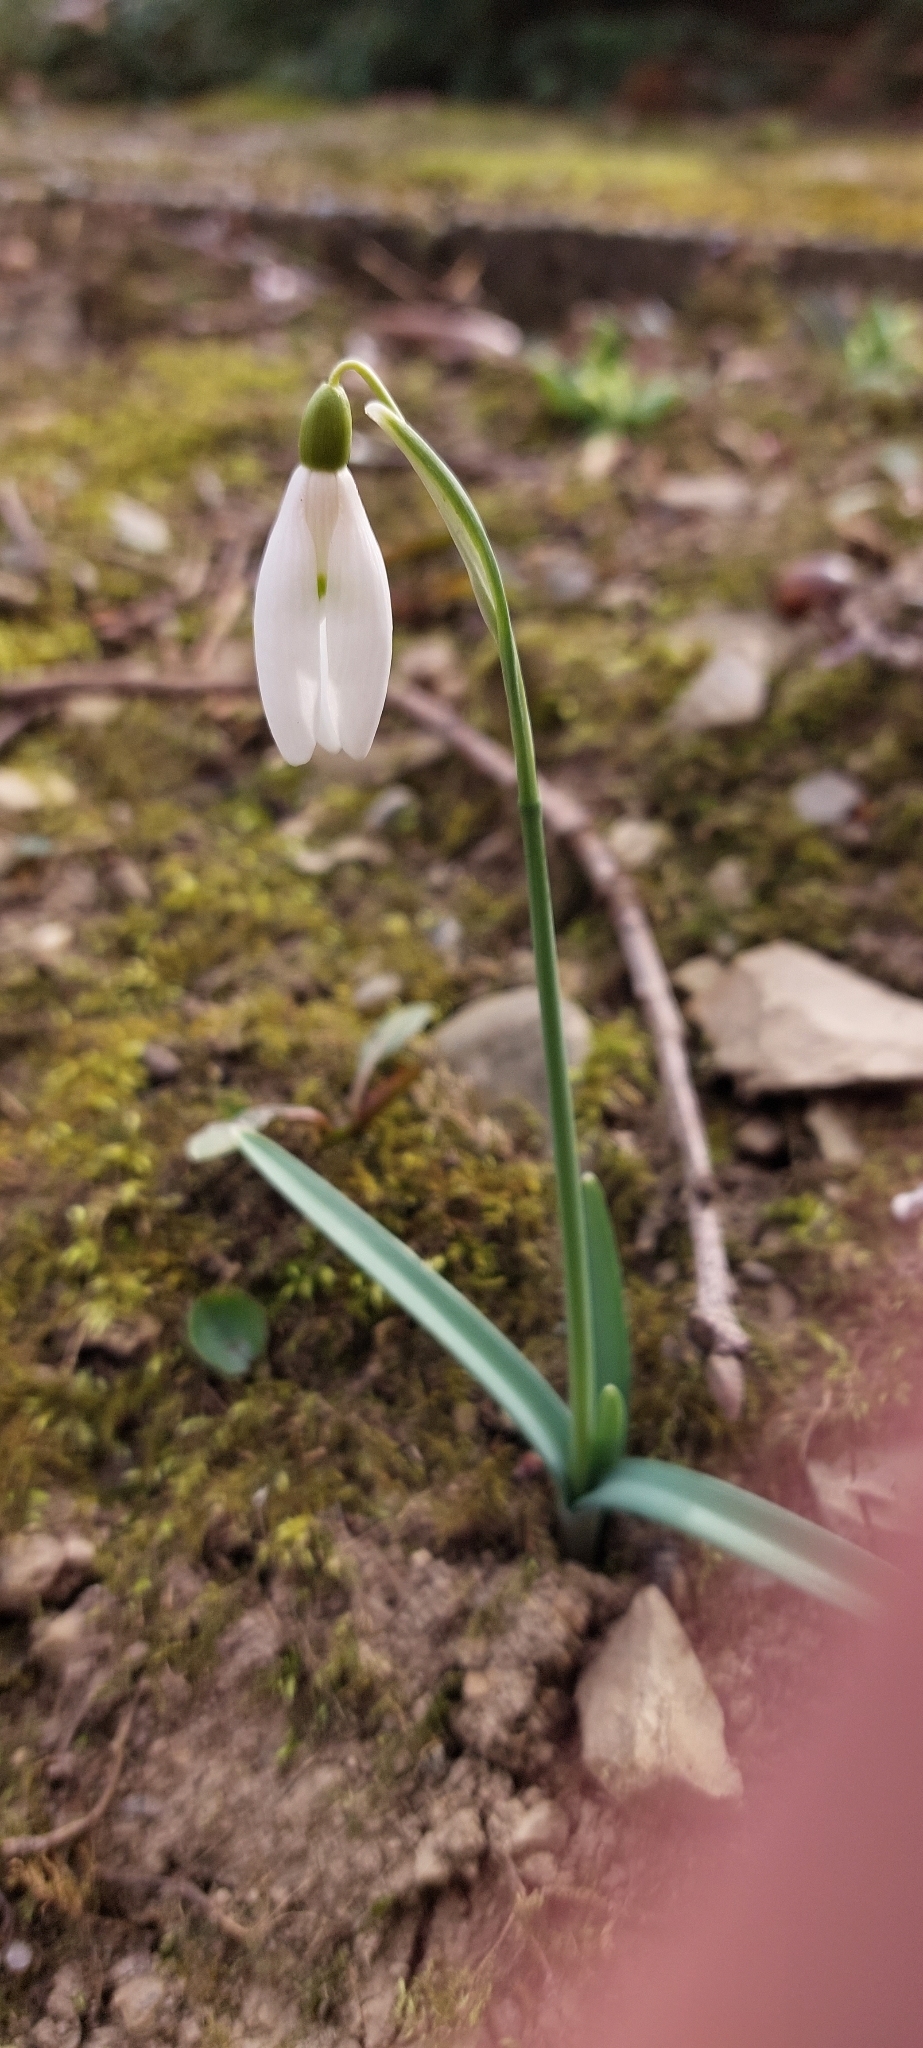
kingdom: Plantae
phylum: Tracheophyta
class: Liliopsida
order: Asparagales
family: Amaryllidaceae
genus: Galanthus
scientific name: Galanthus nivalis
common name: Snowdrop
